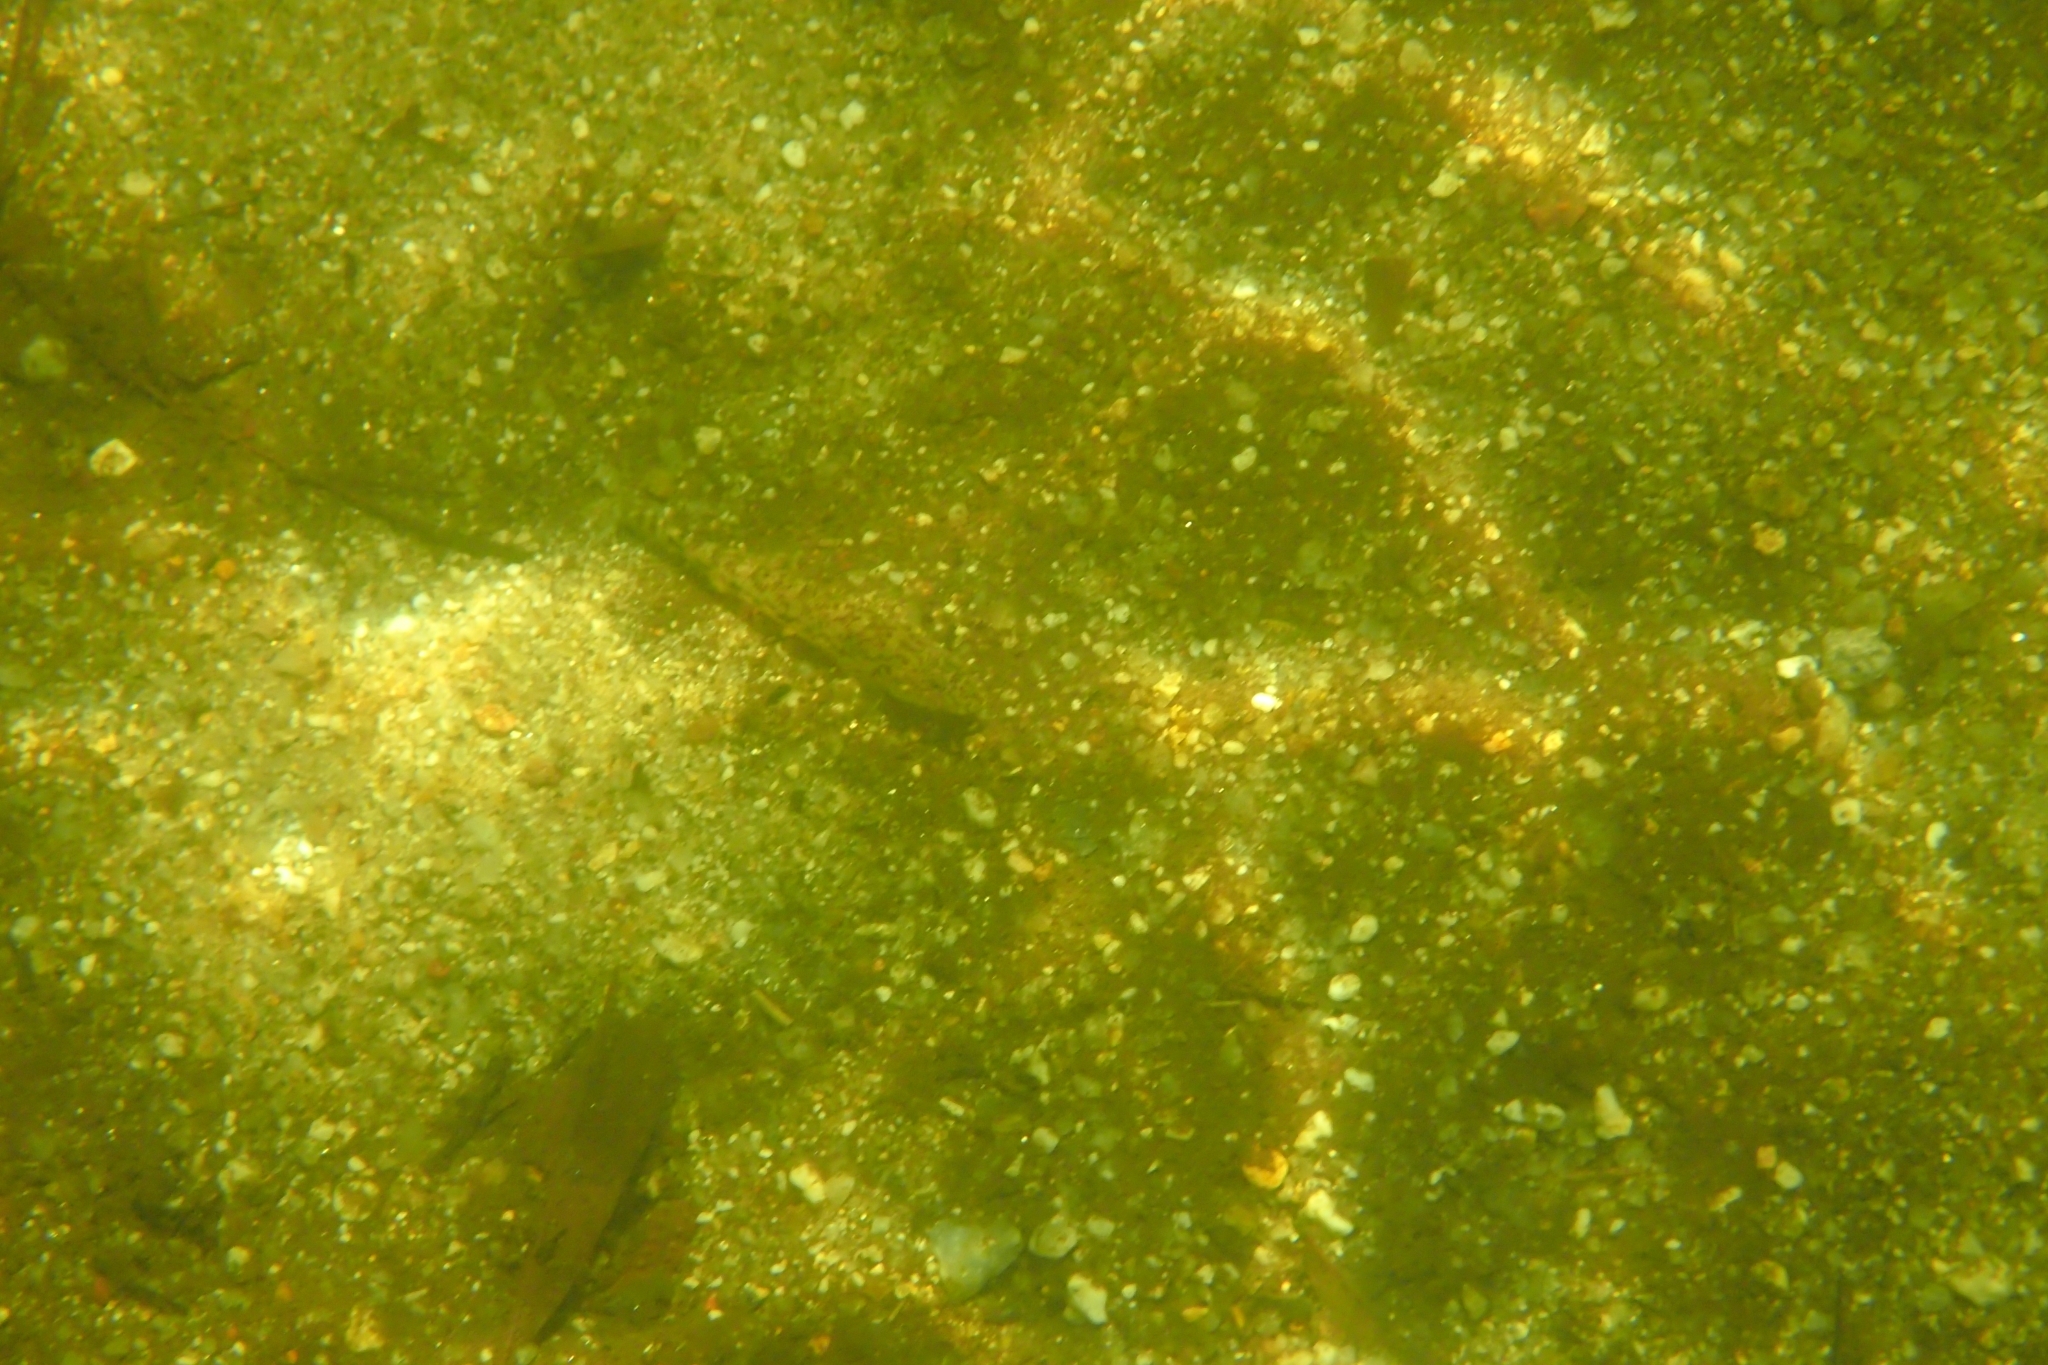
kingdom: Animalia
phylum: Chordata
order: Perciformes
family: Gobiidae
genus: Awaous
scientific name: Awaous acritosus
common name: Roman nose goby
